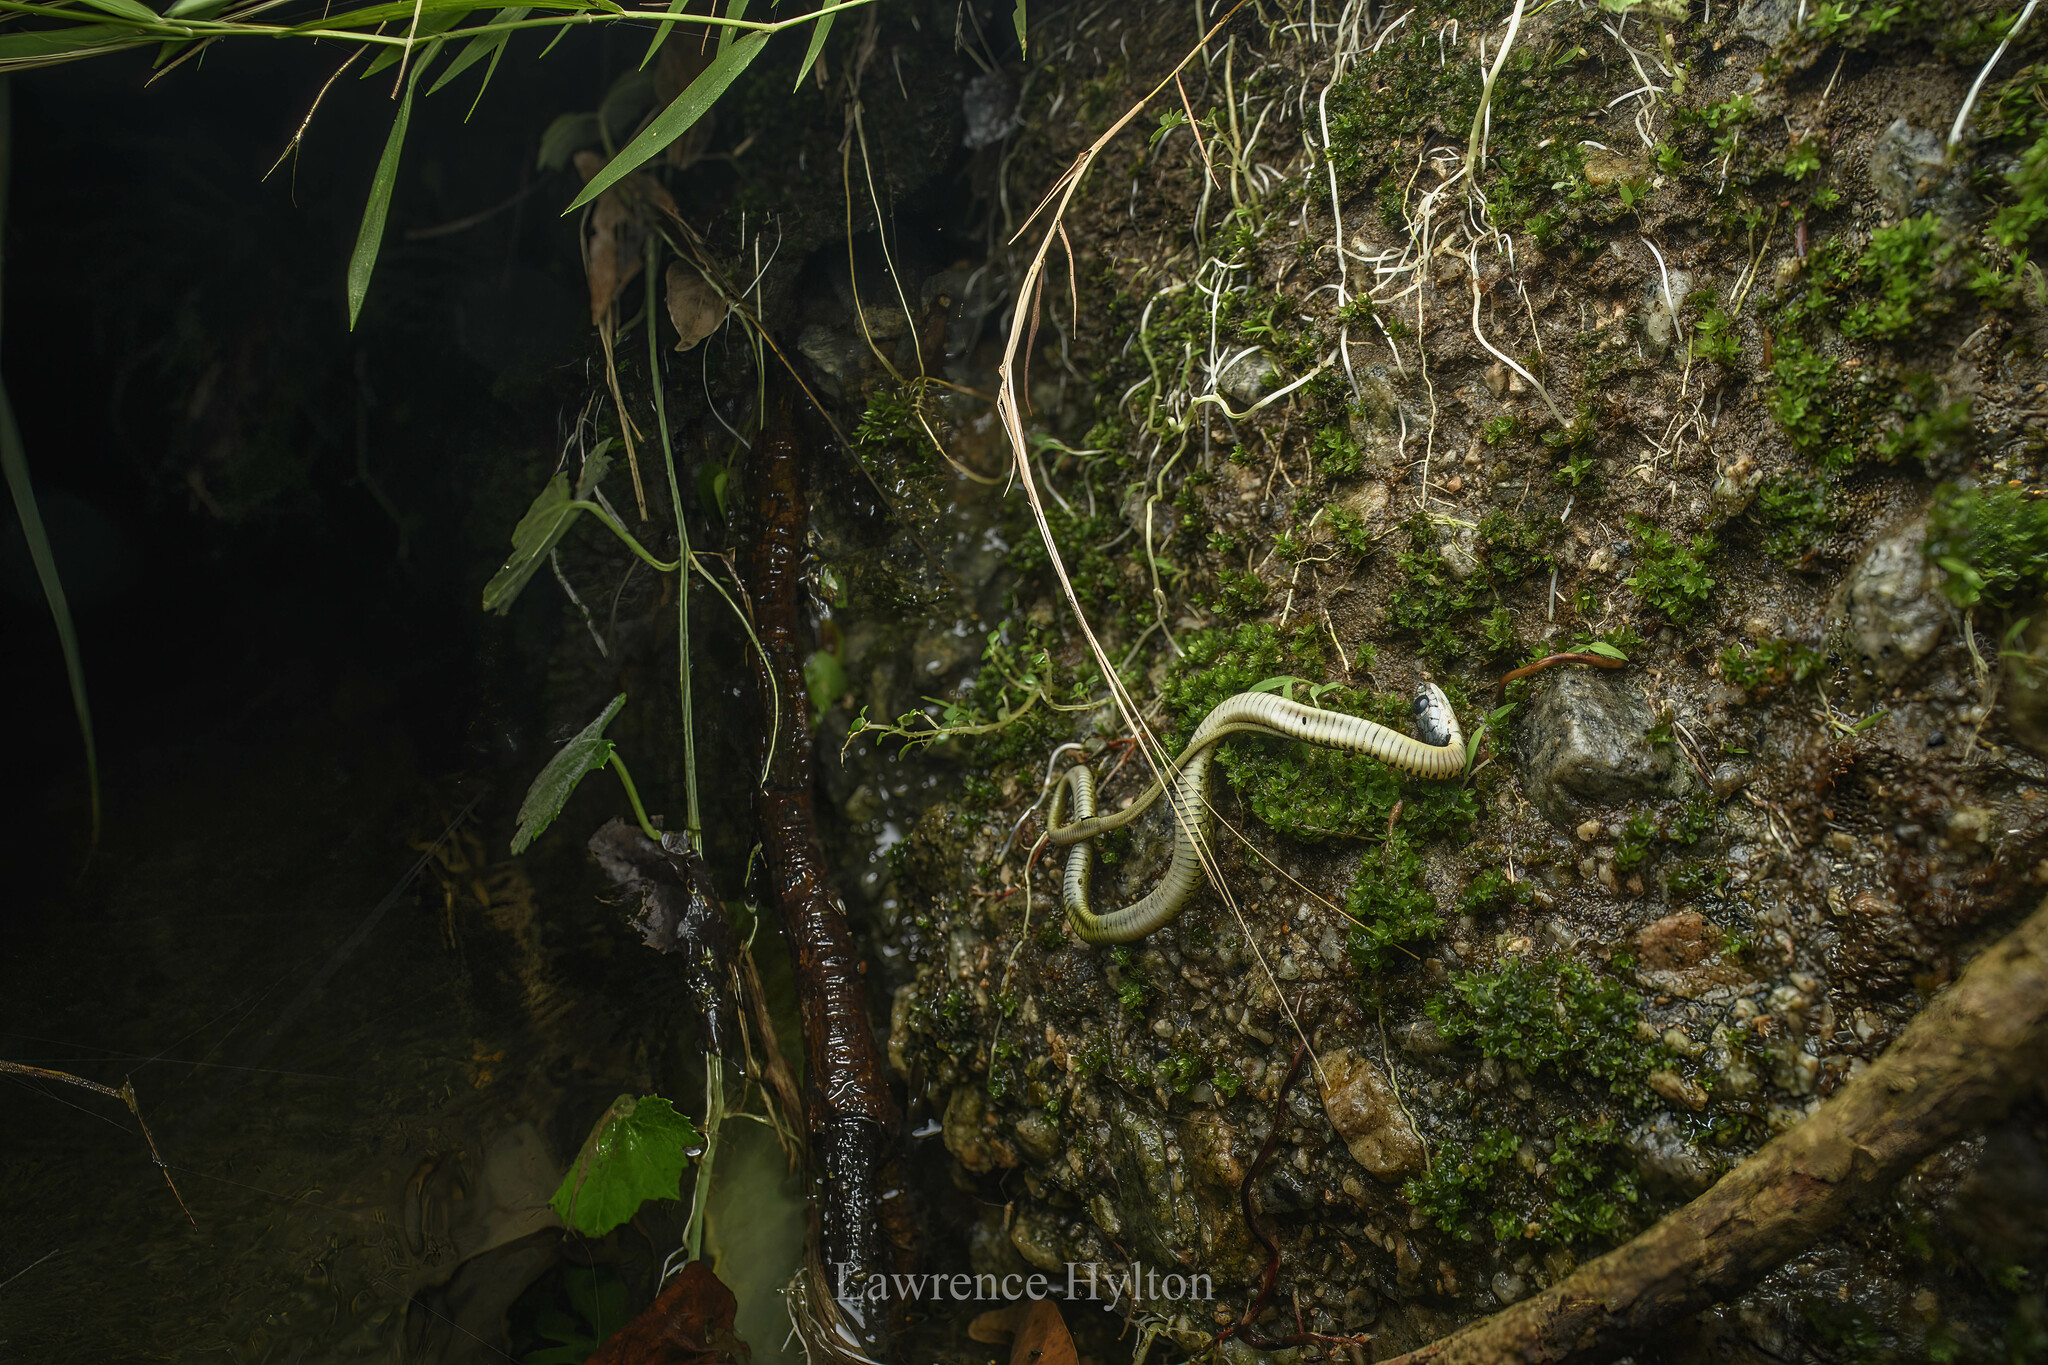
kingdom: Animalia
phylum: Chordata
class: Squamata
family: Colubridae
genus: Rhabdophis
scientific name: Rhabdophis helleri
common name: Heller’s red-necked keelback
